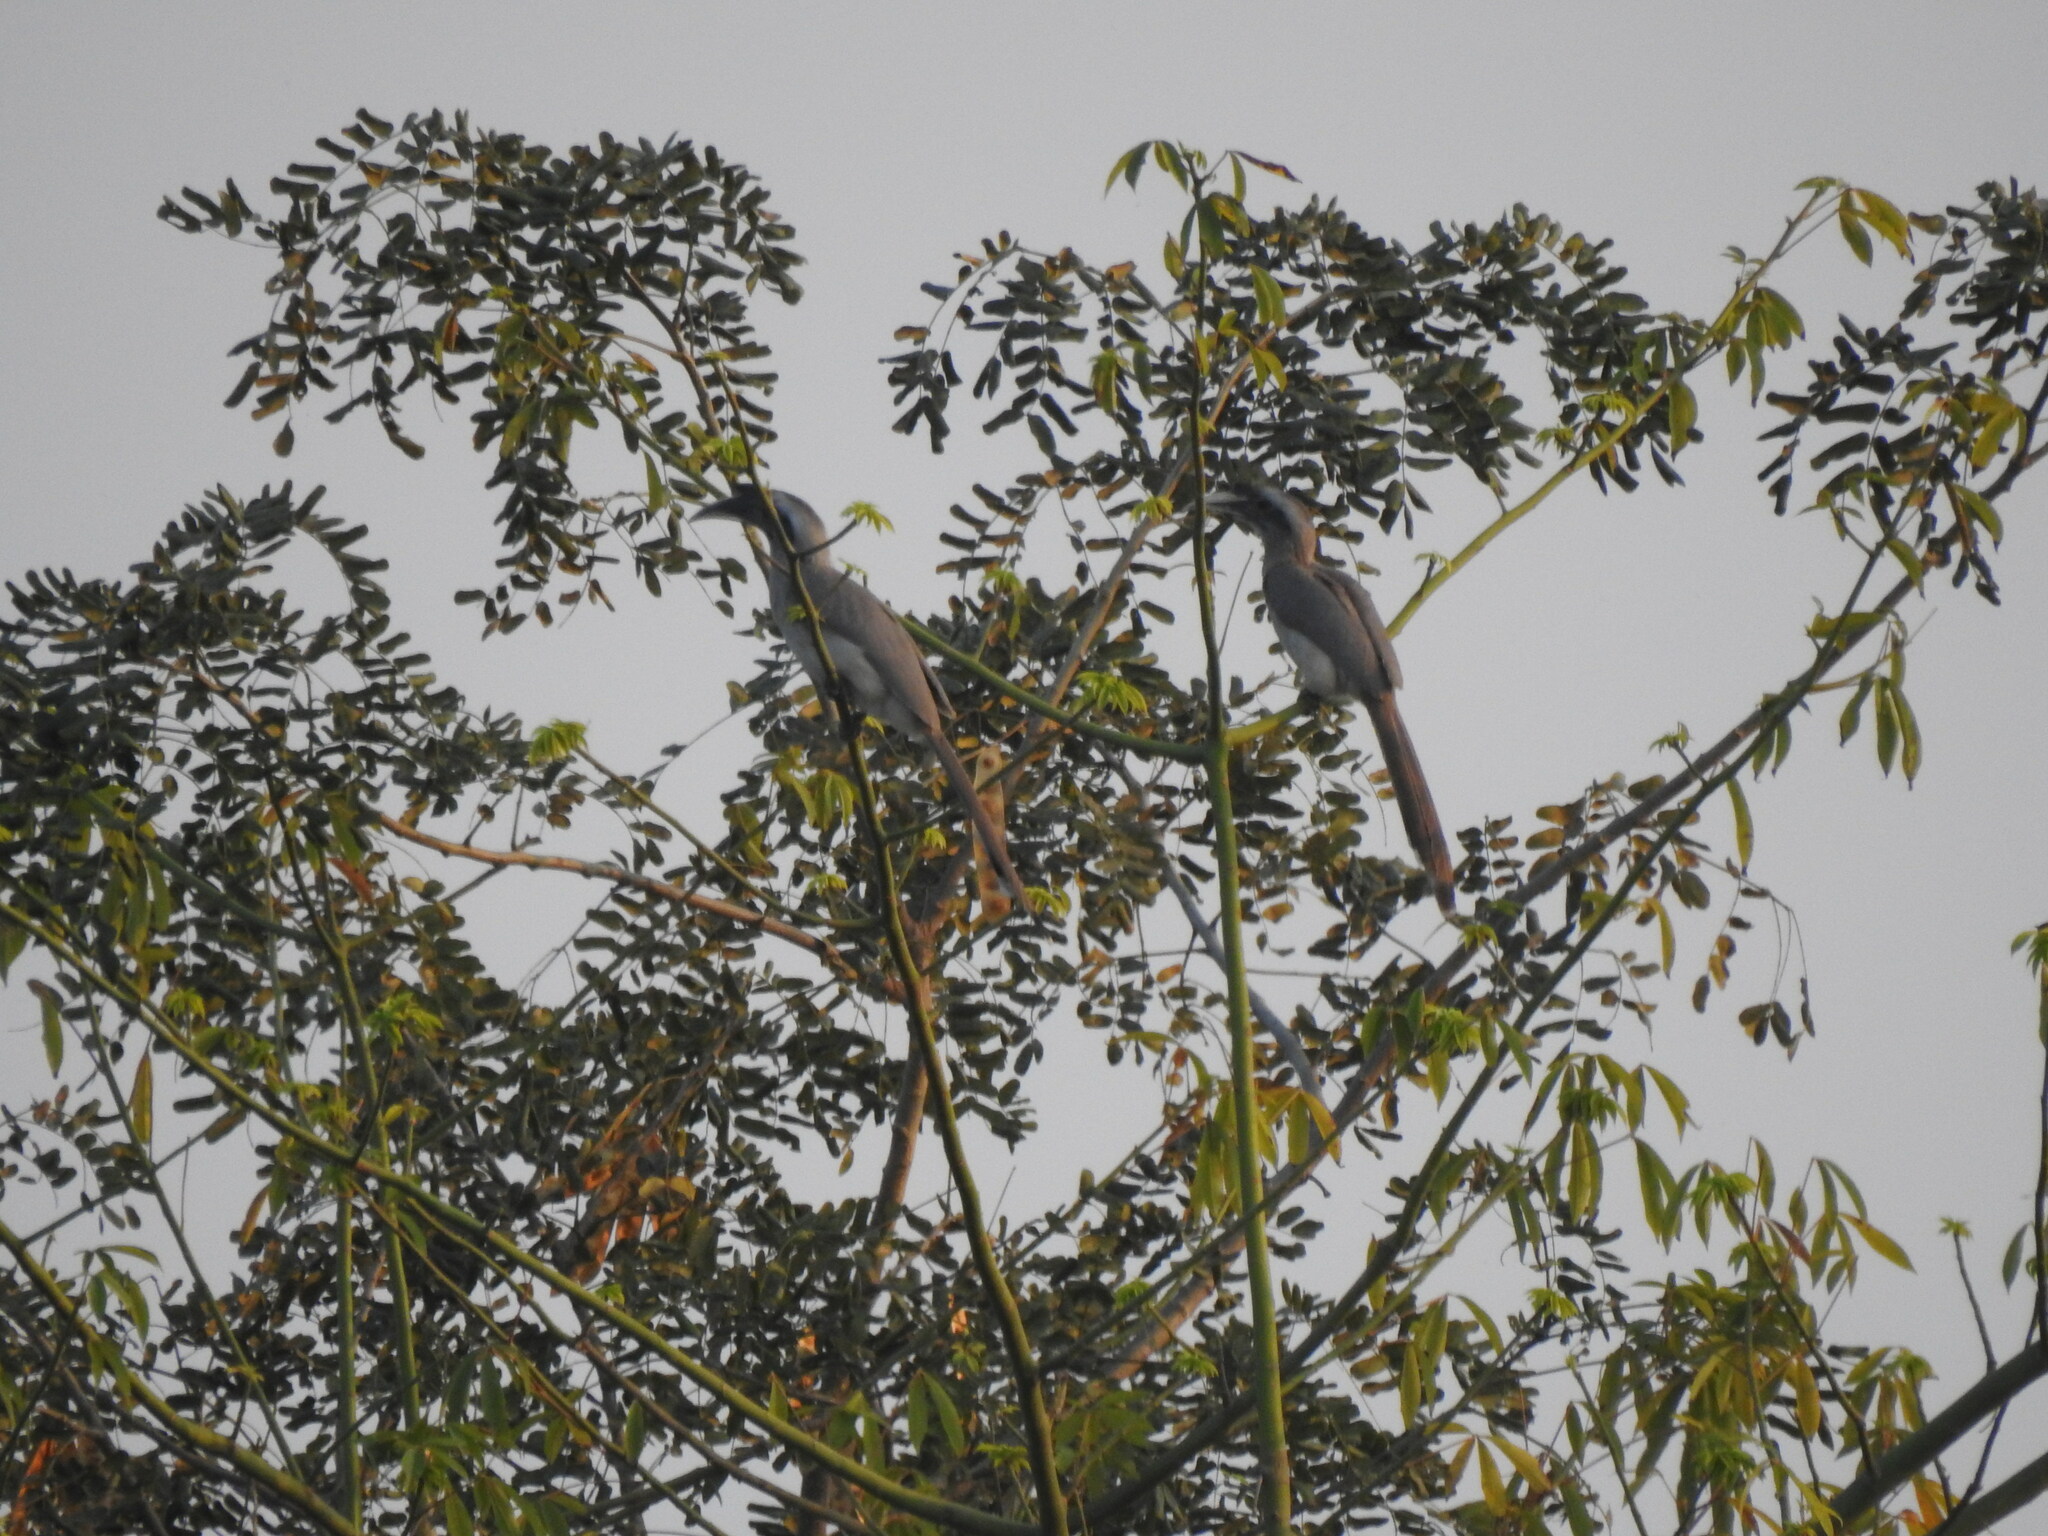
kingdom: Animalia
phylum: Chordata
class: Aves
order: Bucerotiformes
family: Bucerotidae
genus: Ocyceros
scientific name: Ocyceros birostris
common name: Indian grey hornbill
